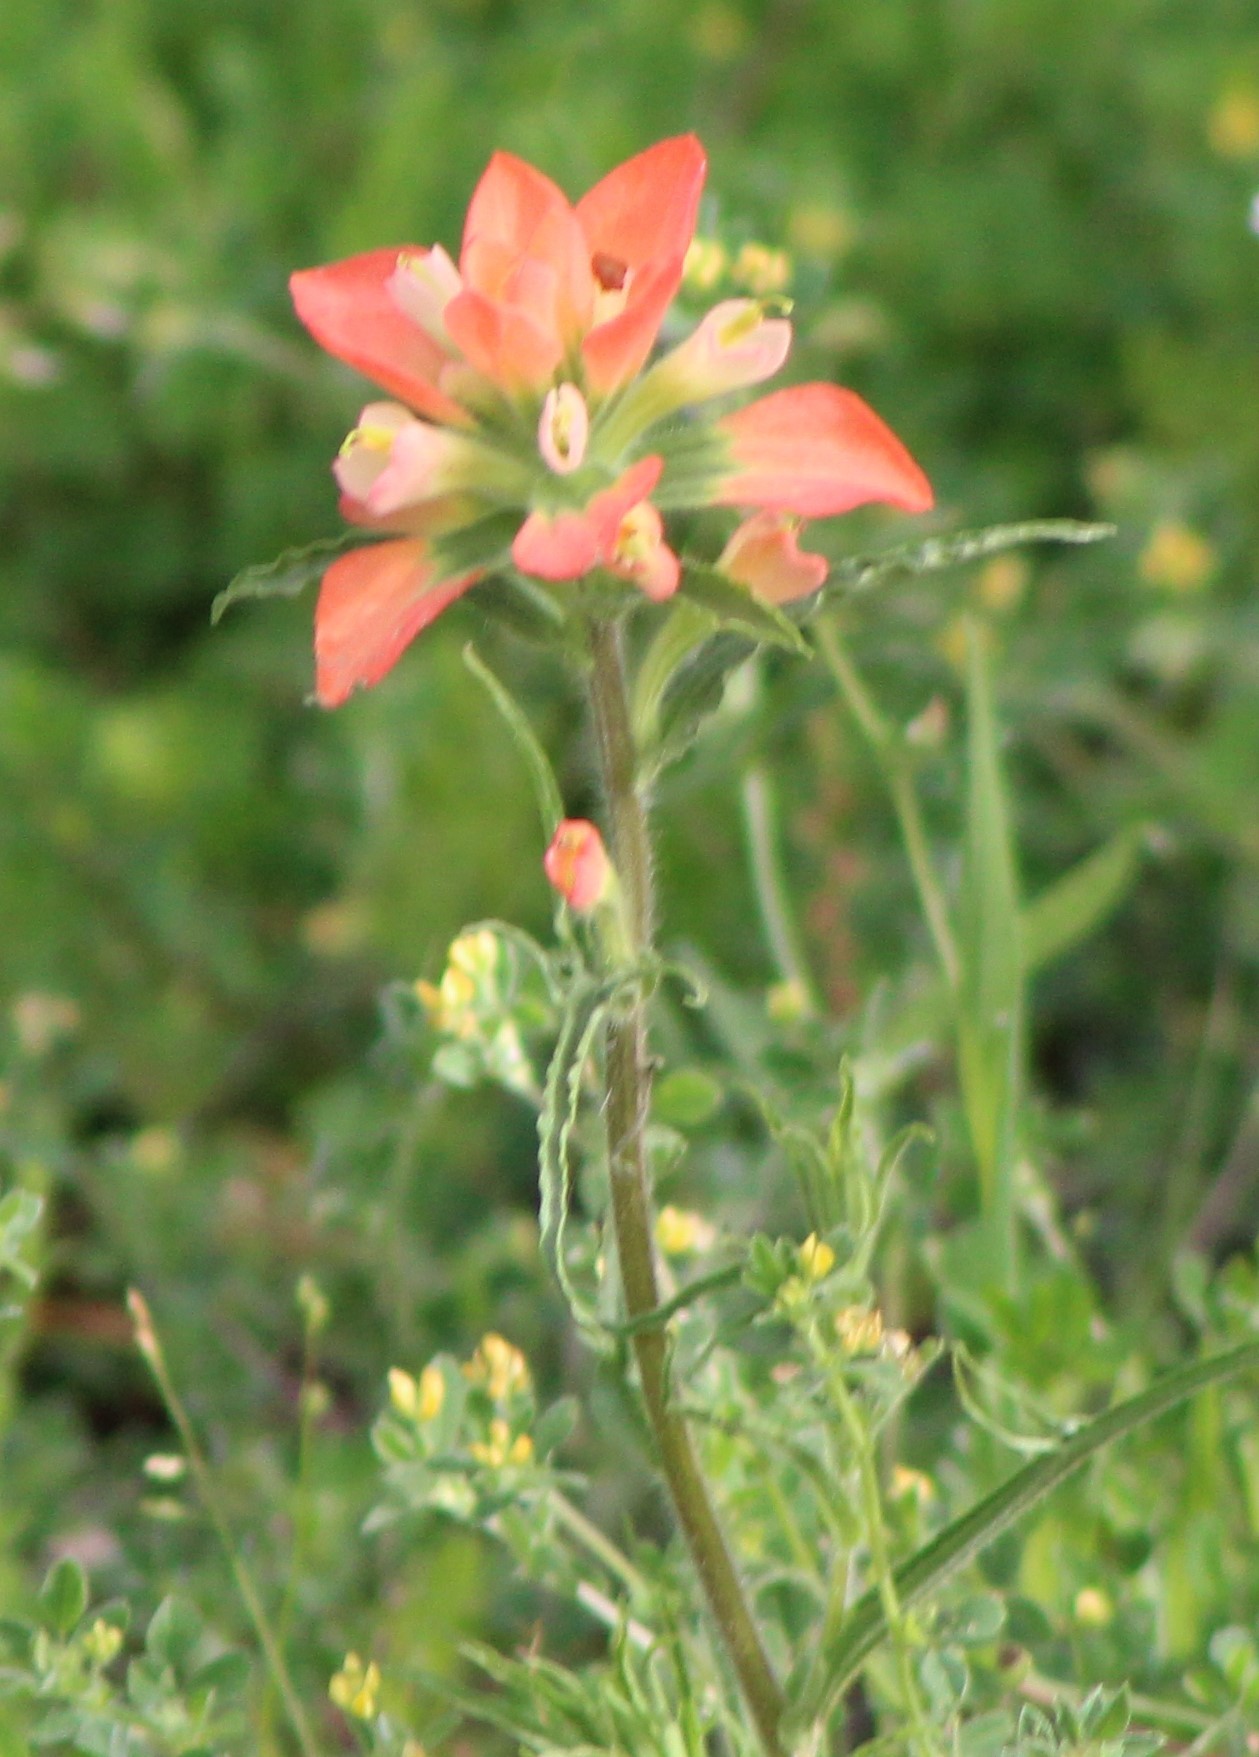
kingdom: Plantae
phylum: Tracheophyta
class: Magnoliopsida
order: Lamiales
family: Orobanchaceae
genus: Castilleja
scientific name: Castilleja indivisa
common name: Texas paintbrush
